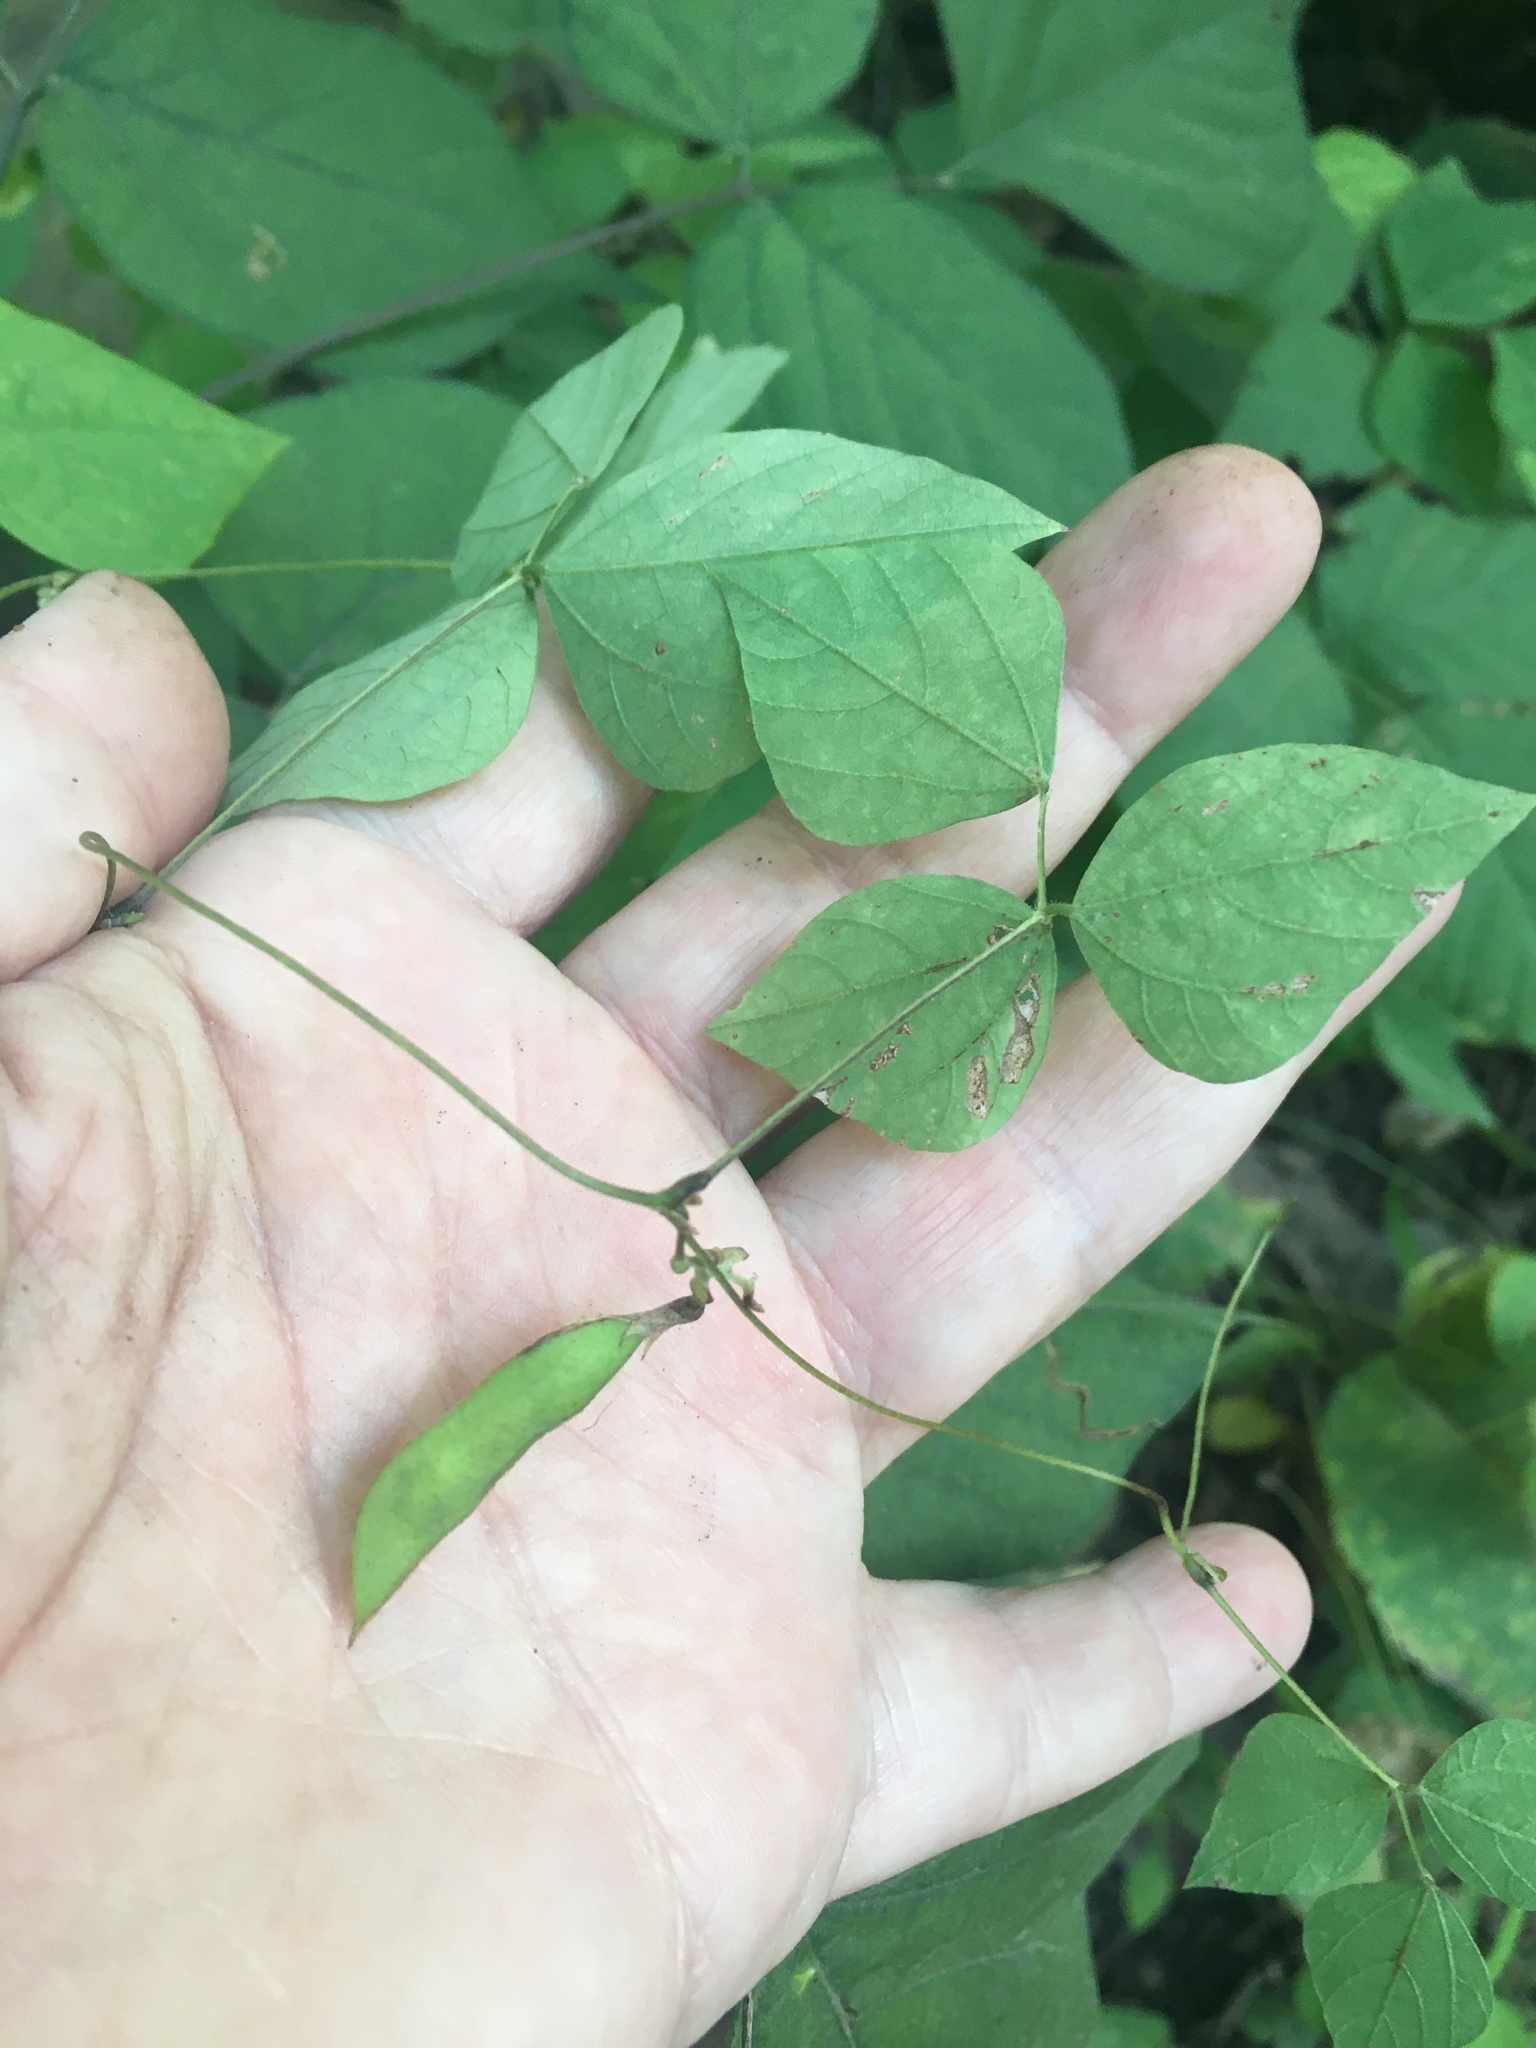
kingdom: Plantae
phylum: Tracheophyta
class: Magnoliopsida
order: Fabales
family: Fabaceae
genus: Amphicarpaea
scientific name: Amphicarpaea bracteata
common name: American hog peanut
